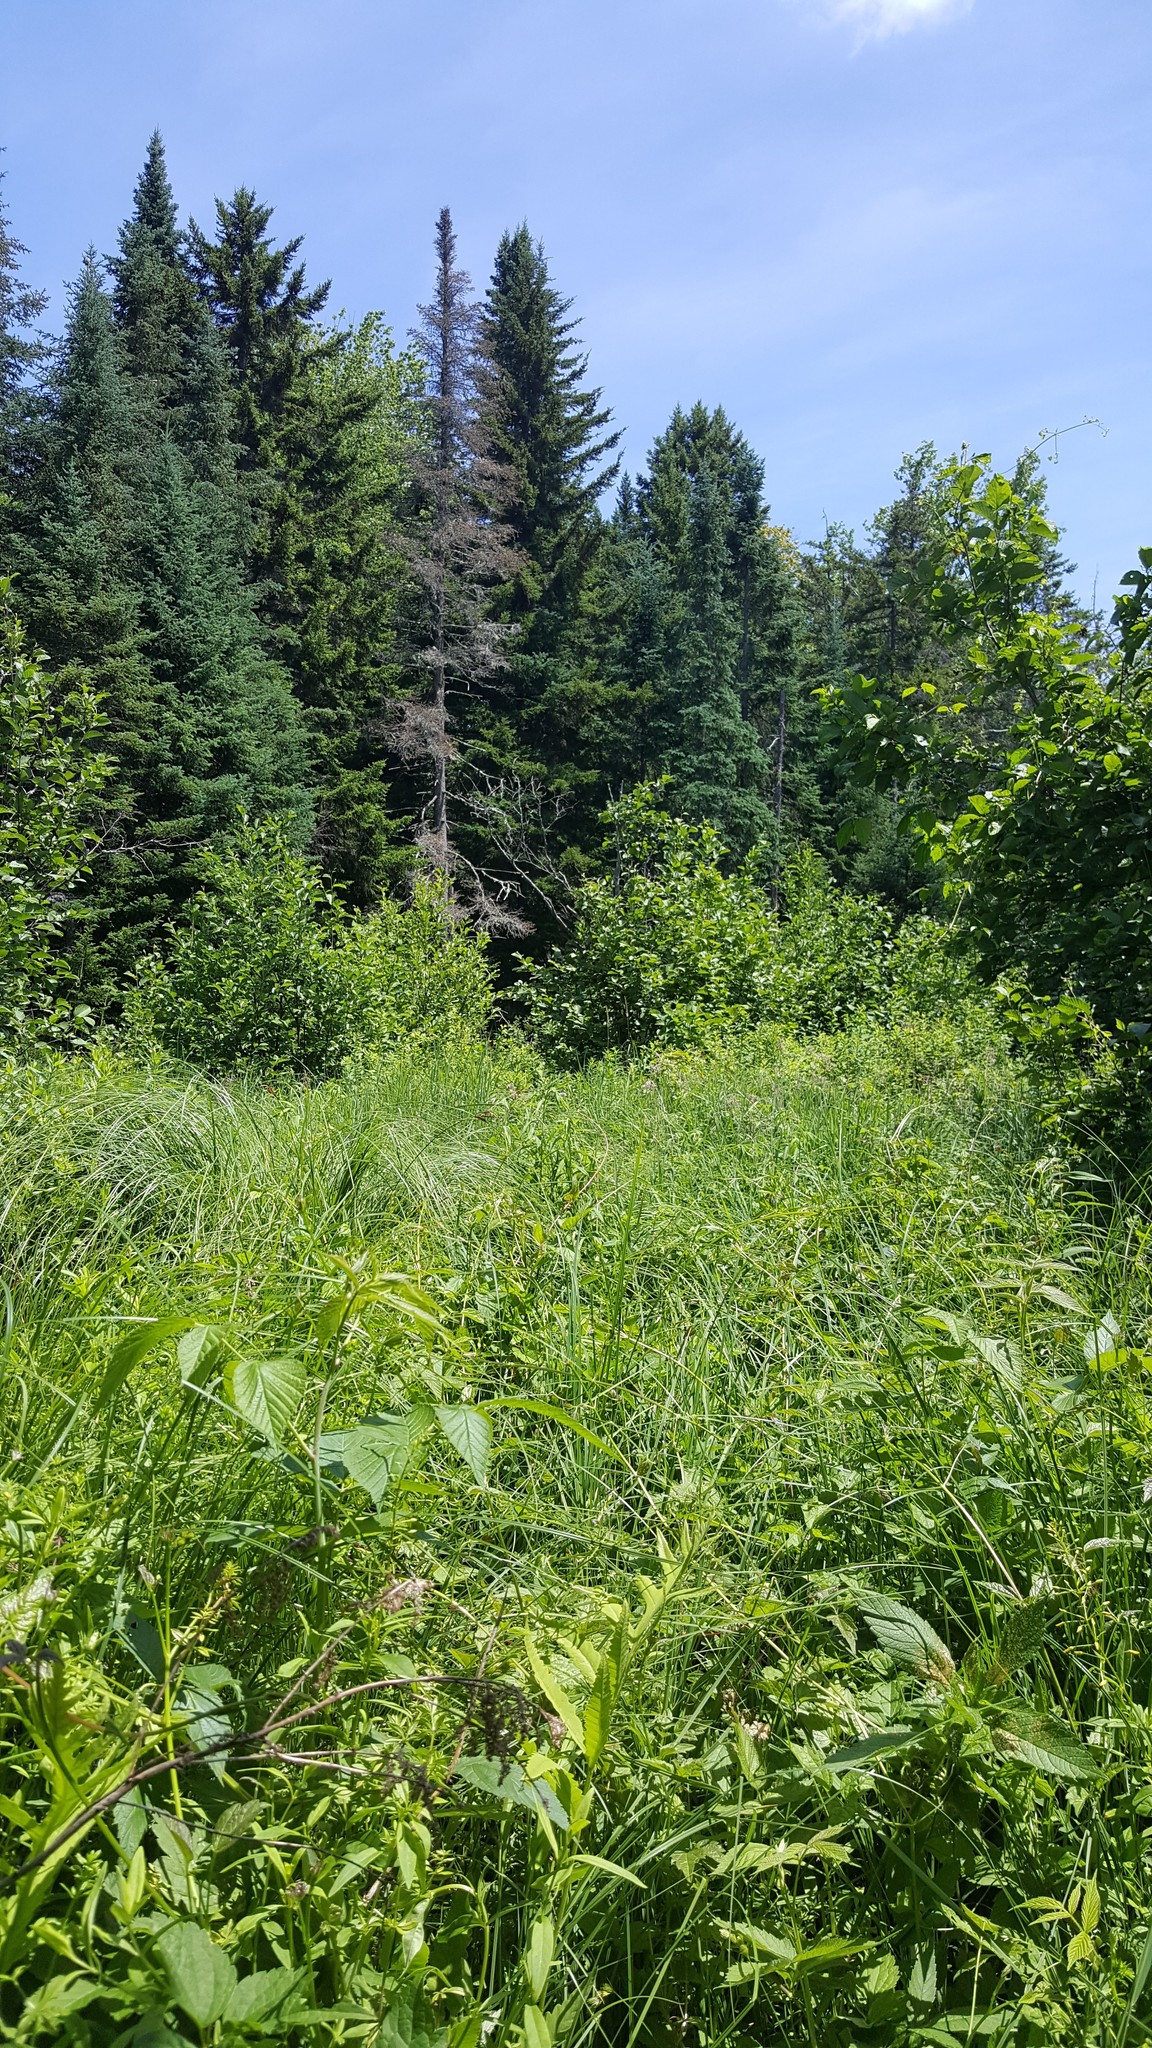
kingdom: Plantae
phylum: Tracheophyta
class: Pinopsida
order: Pinales
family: Pinaceae
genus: Abies
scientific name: Abies balsamea
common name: Balsam fir
